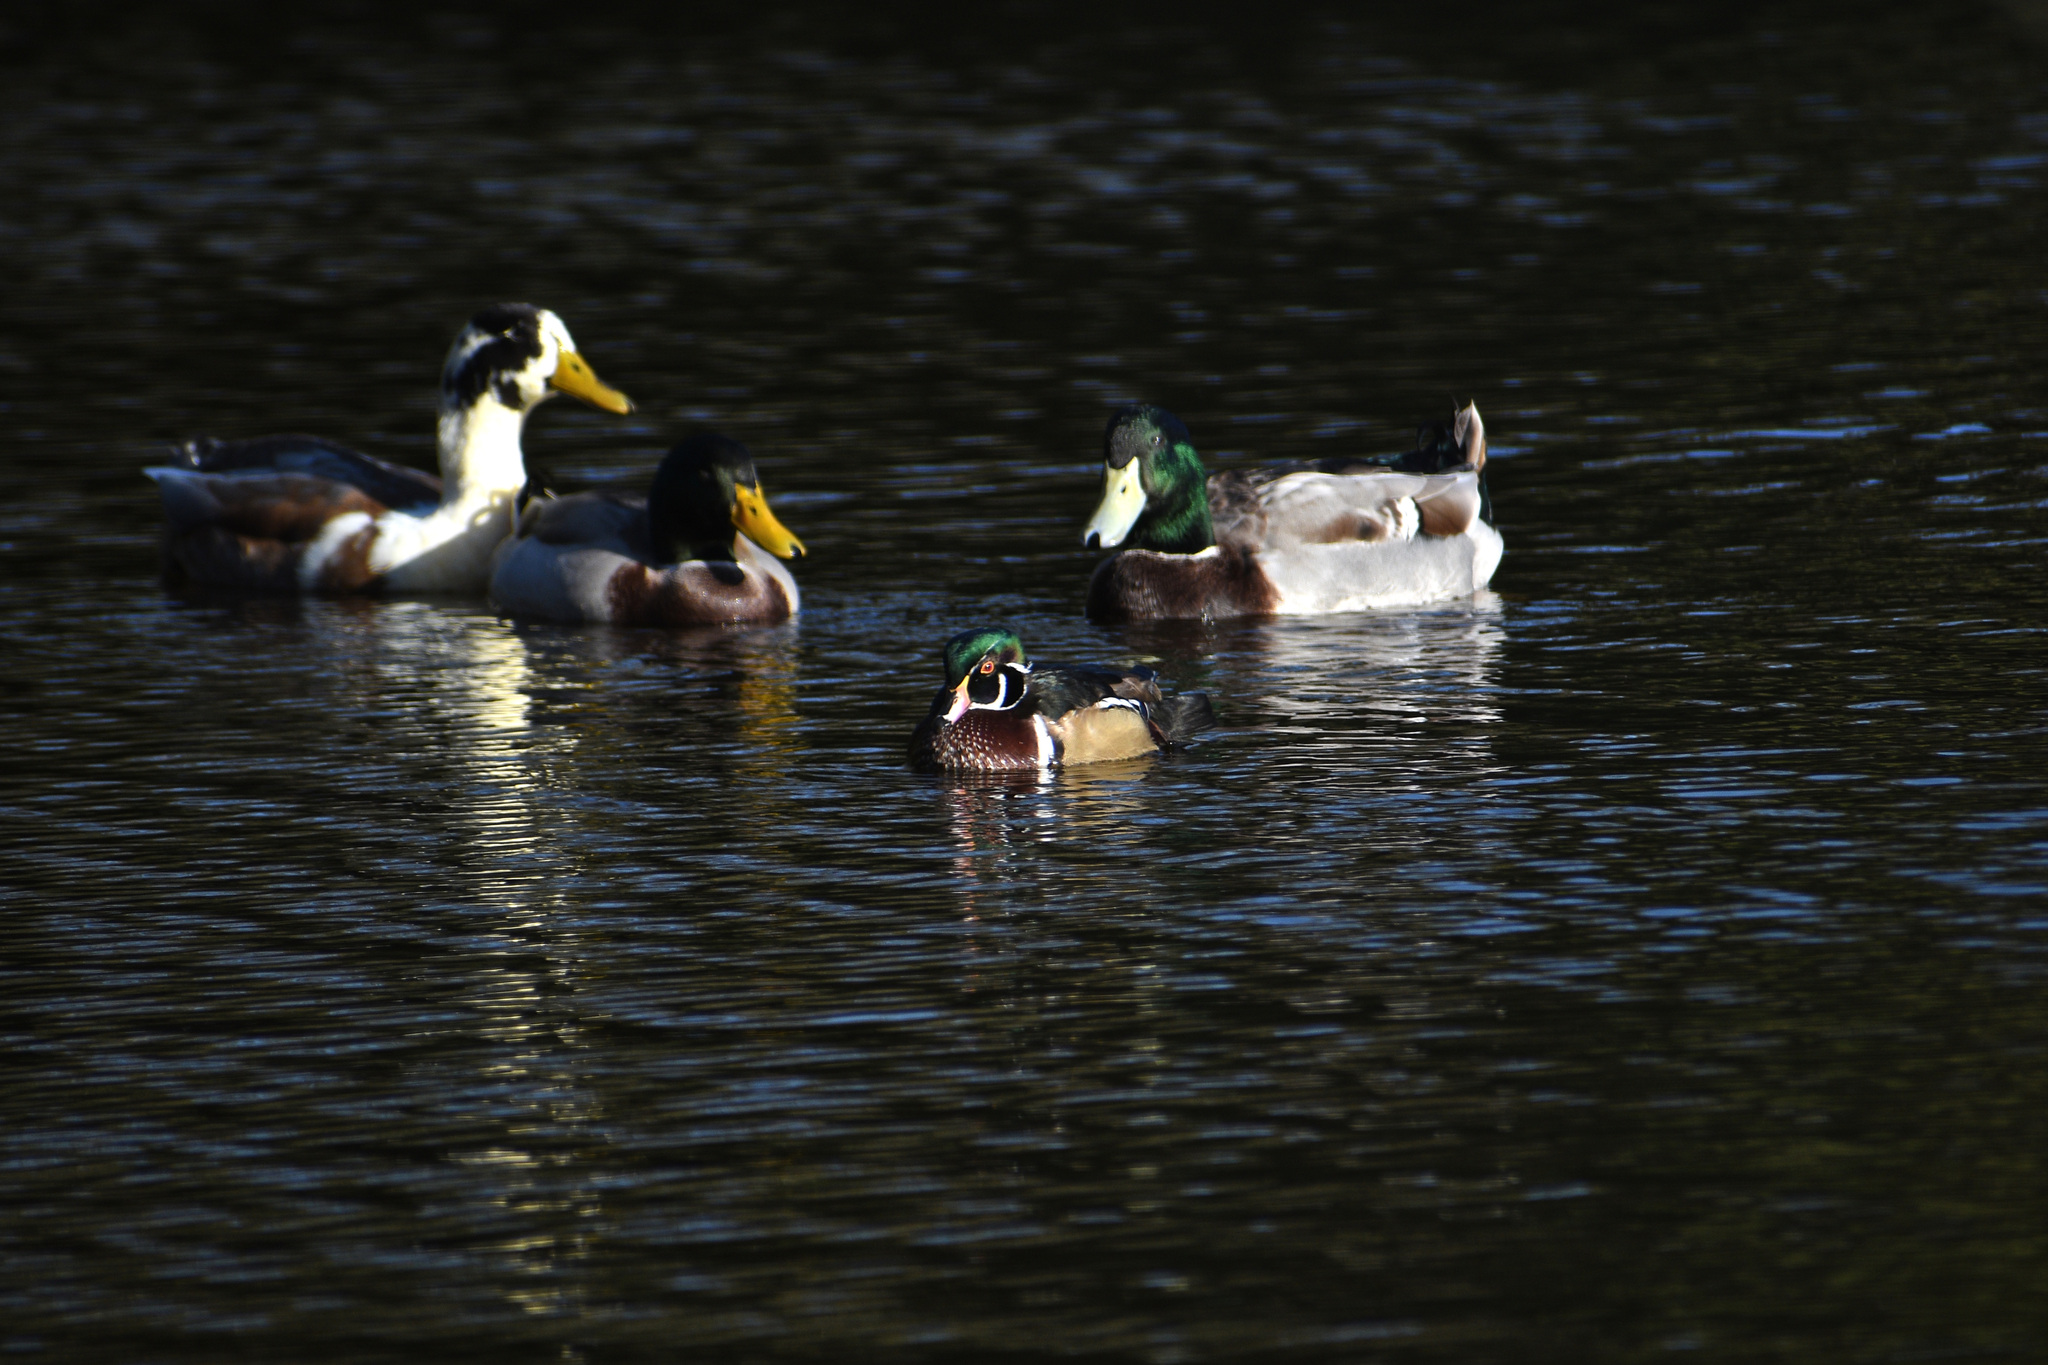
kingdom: Animalia
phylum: Chordata
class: Aves
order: Anseriformes
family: Anatidae
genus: Aix
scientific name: Aix sponsa
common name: Wood duck
